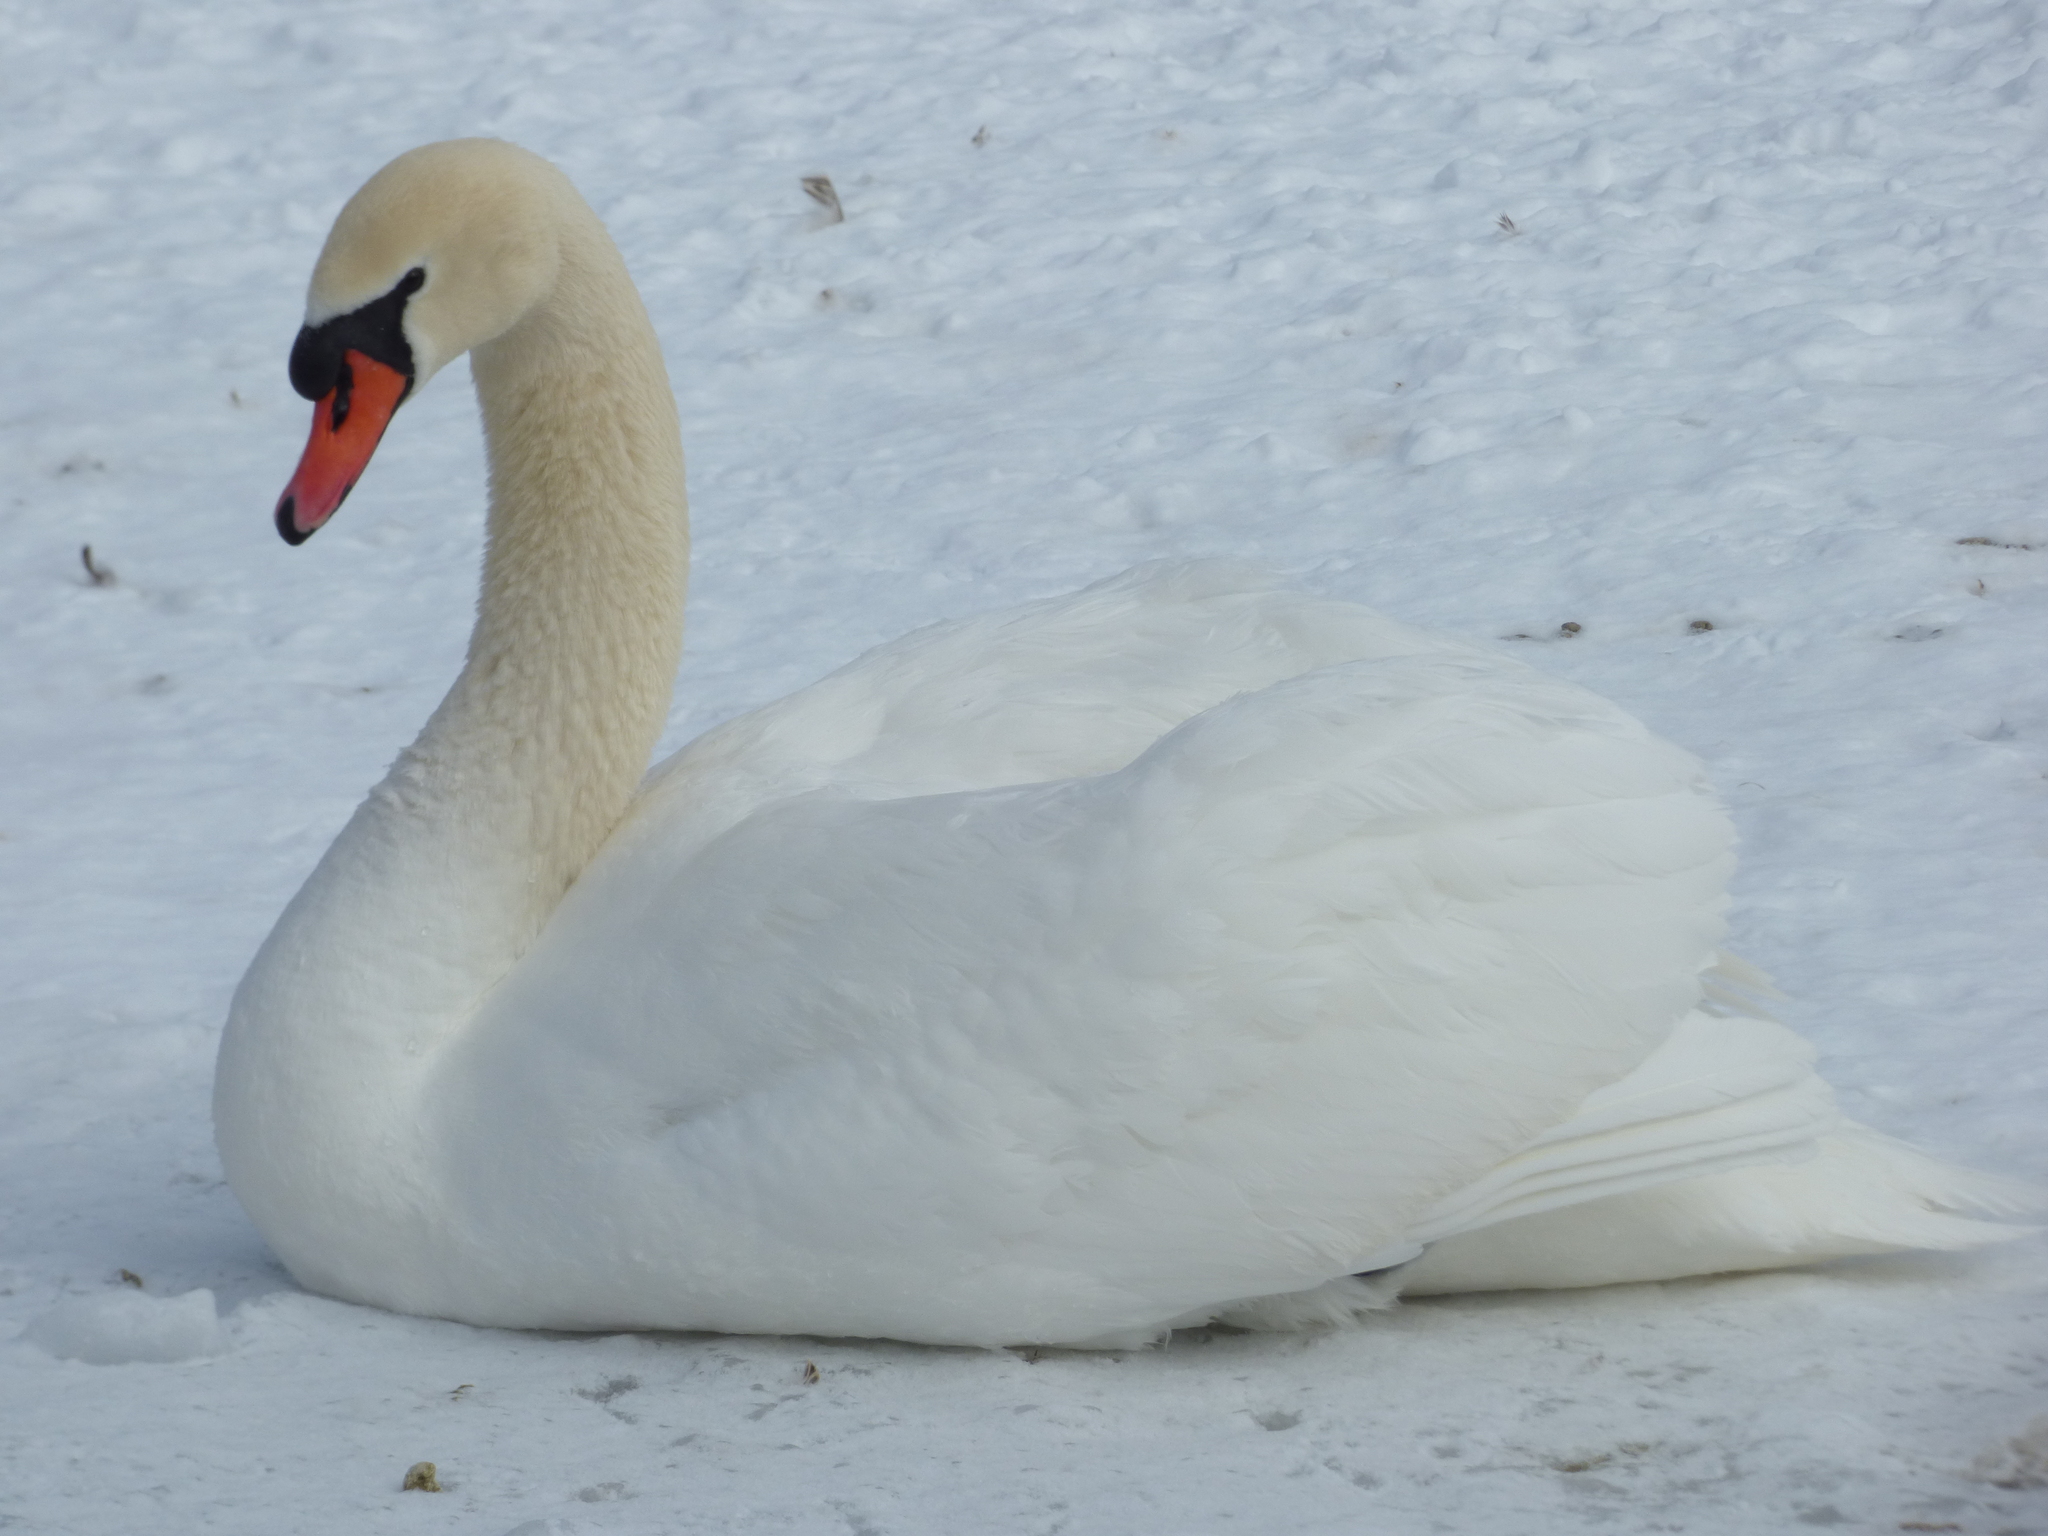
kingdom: Animalia
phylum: Chordata
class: Aves
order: Anseriformes
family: Anatidae
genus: Cygnus
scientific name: Cygnus olor
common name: Mute swan
